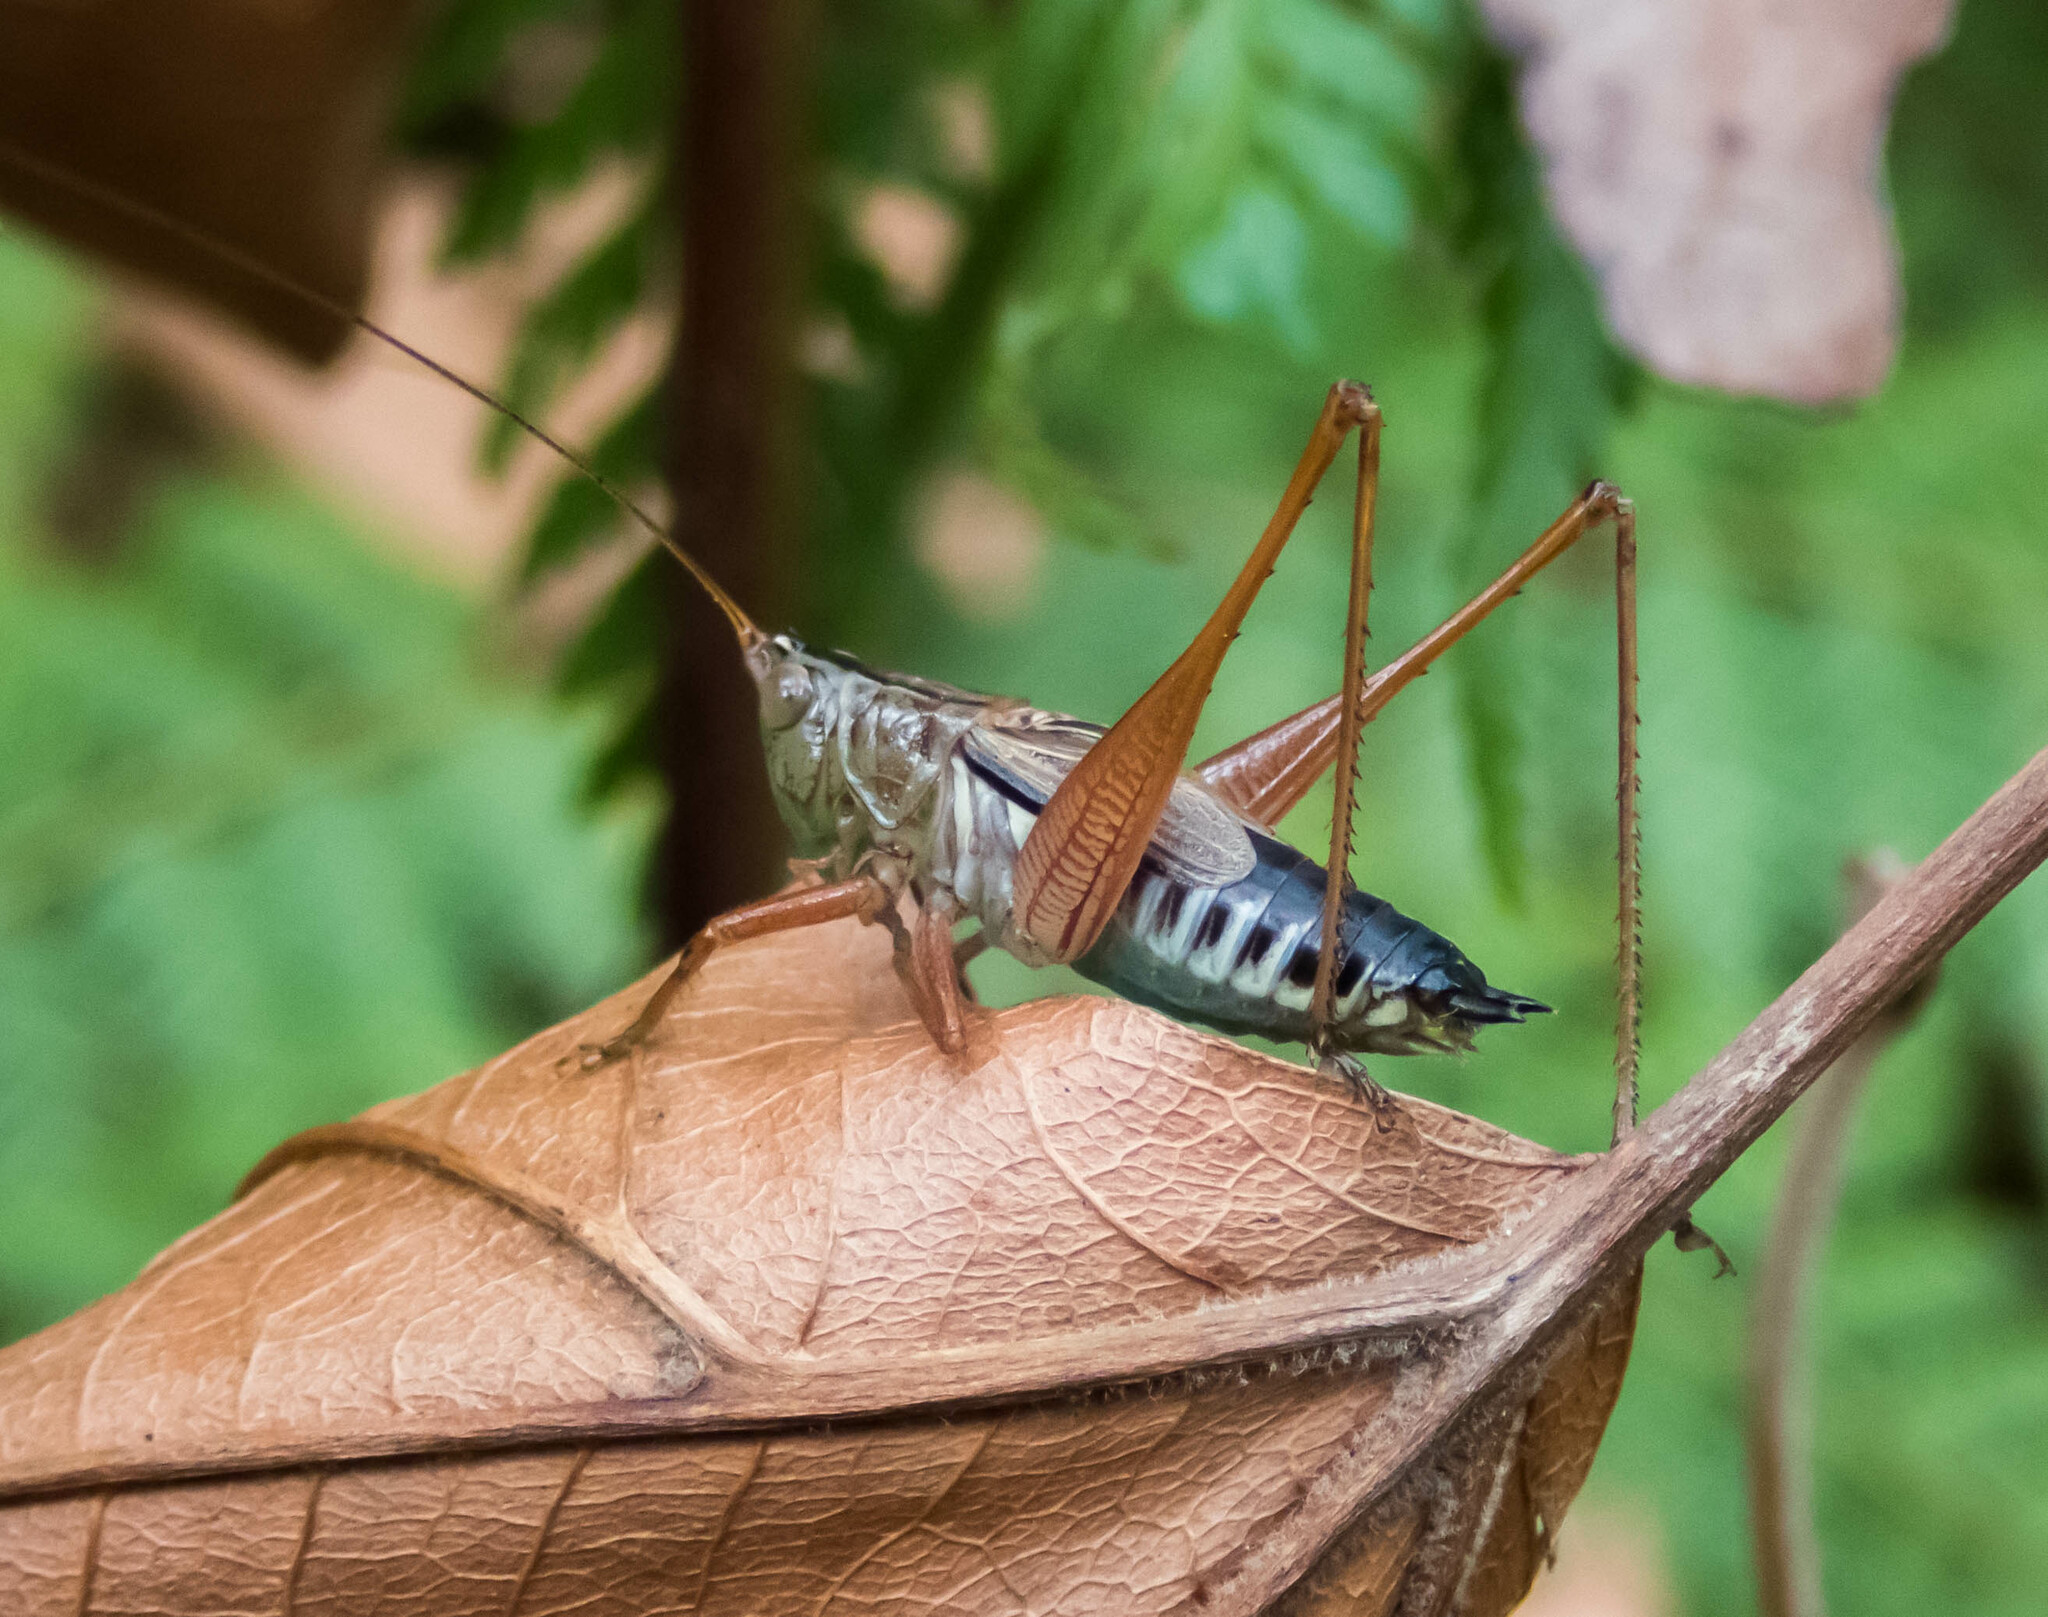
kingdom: Animalia
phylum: Arthropoda
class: Insecta
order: Orthoptera
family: Tettigoniidae
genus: Conocephalus
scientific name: Conocephalus semivittatus
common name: Blackish meadow katydid
